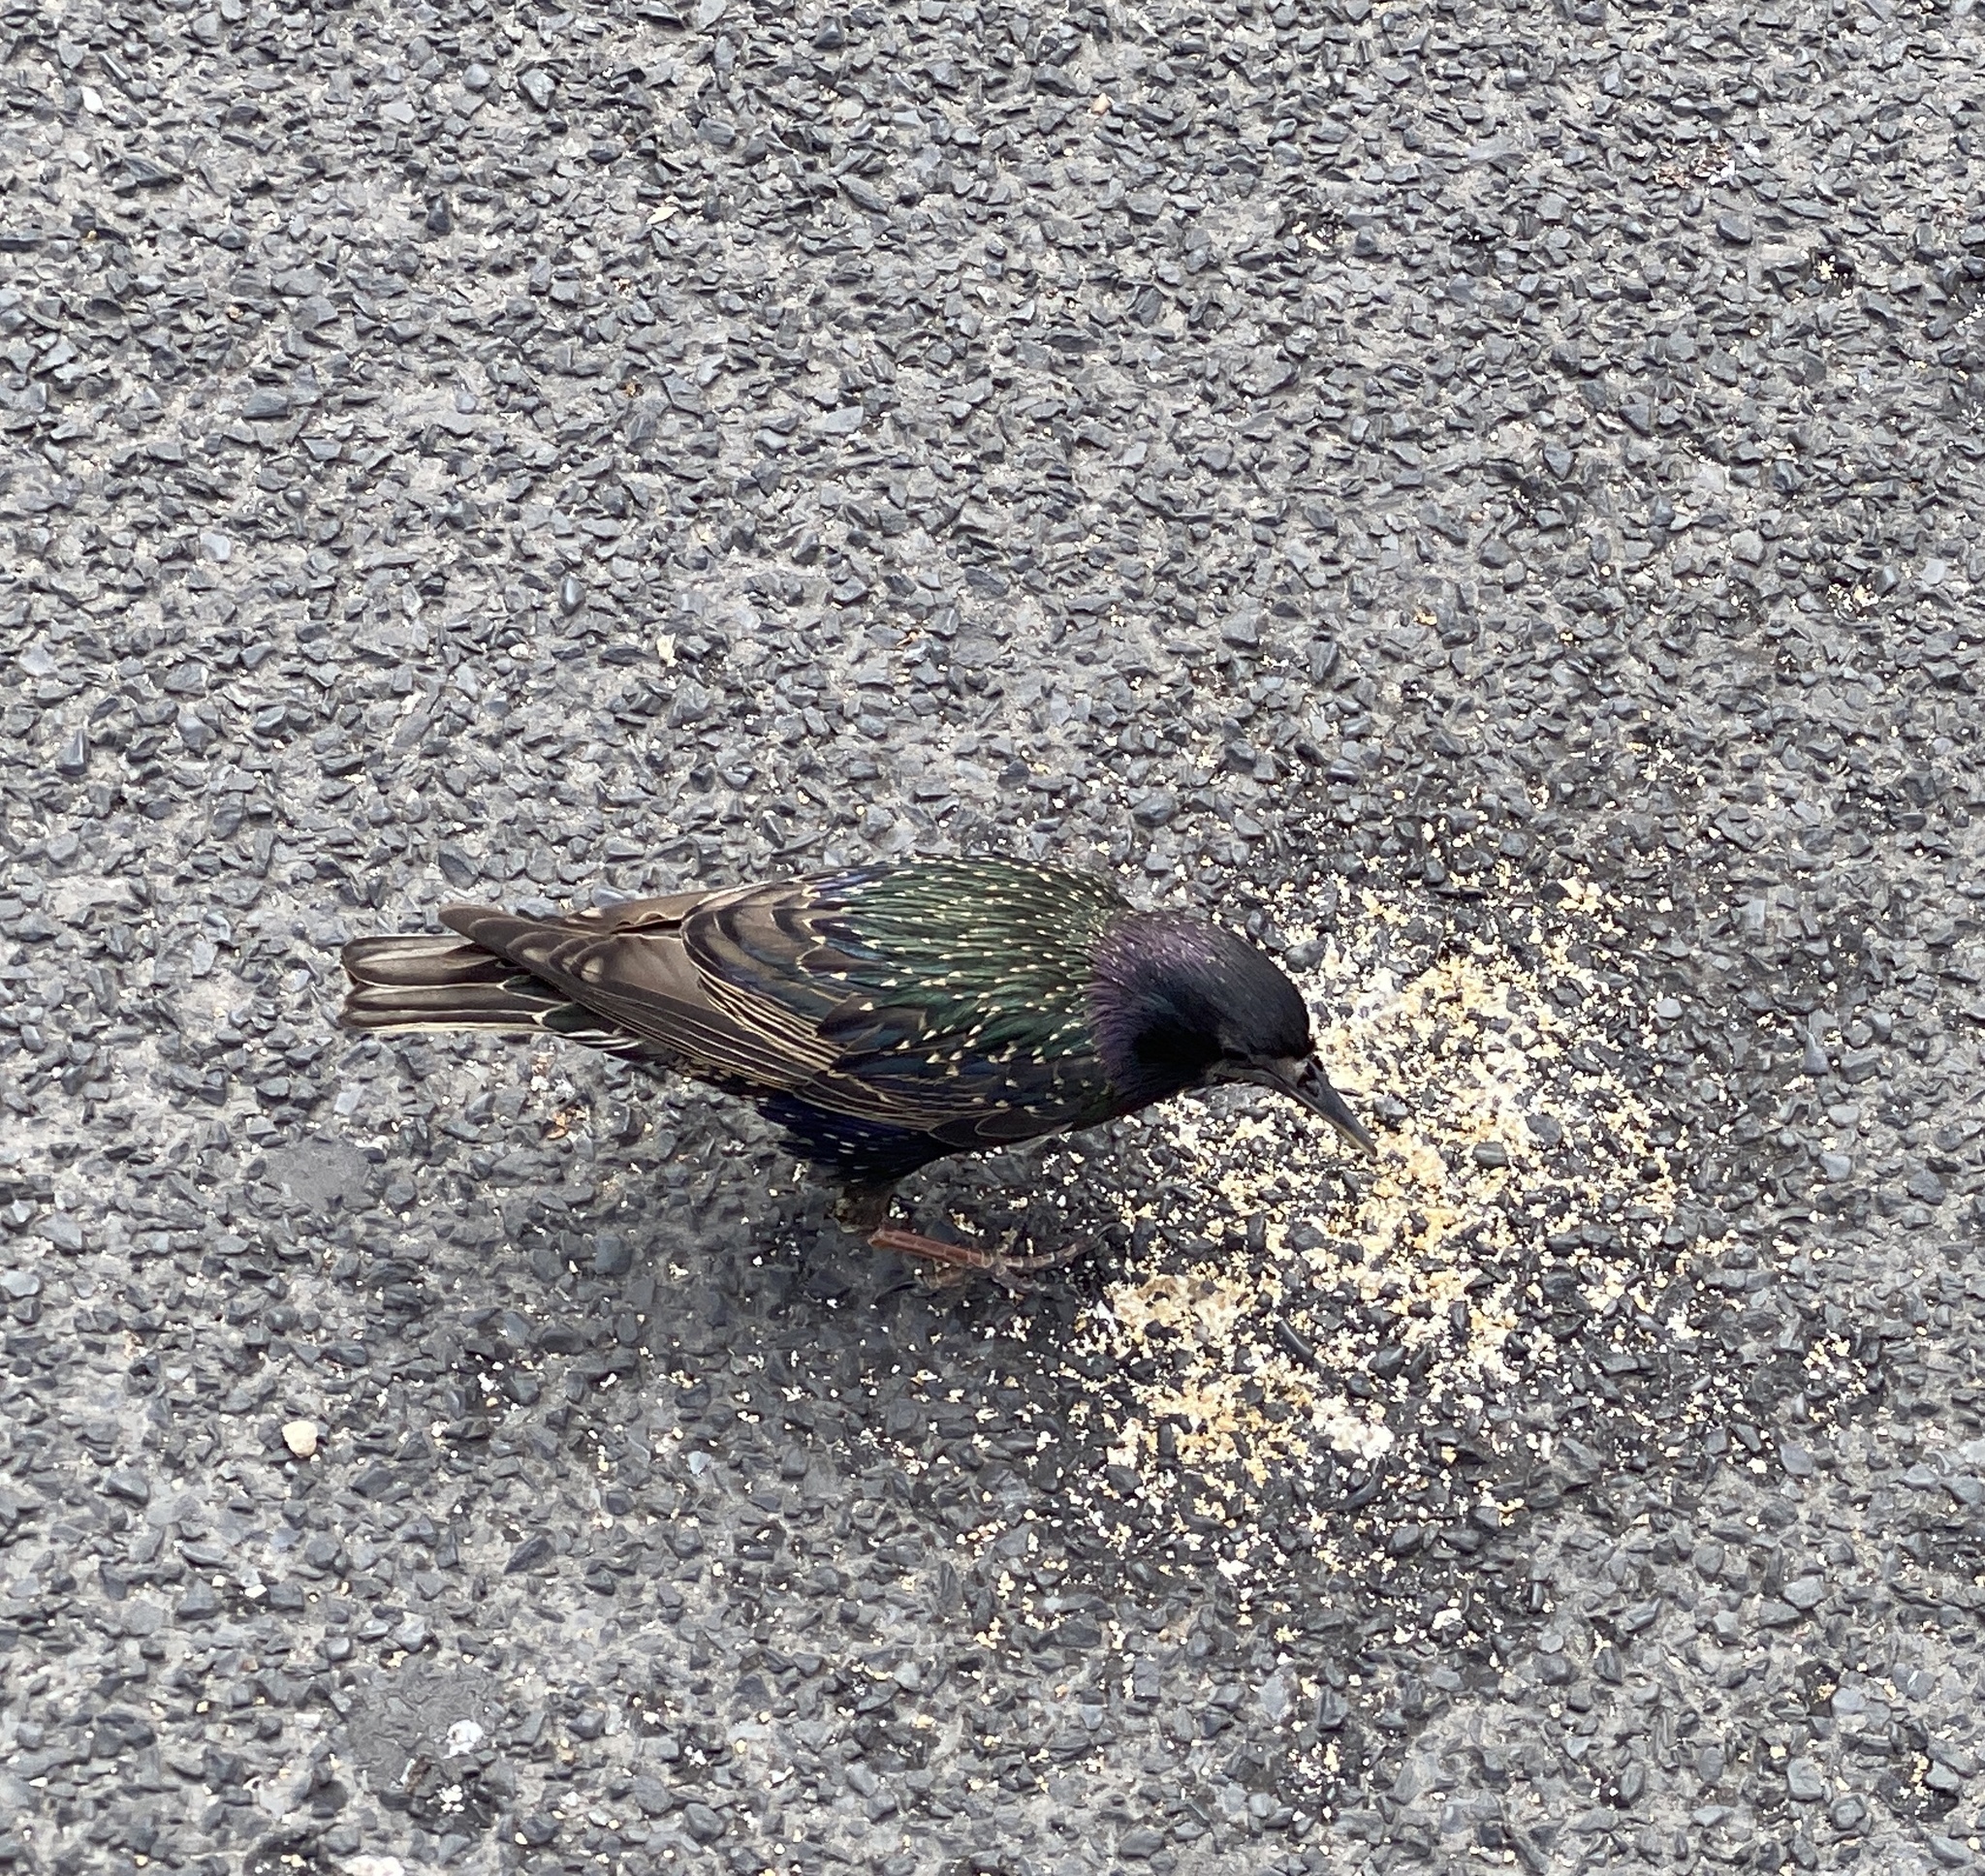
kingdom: Animalia
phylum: Chordata
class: Aves
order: Passeriformes
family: Sturnidae
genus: Sturnus
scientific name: Sturnus vulgaris
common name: Common starling
